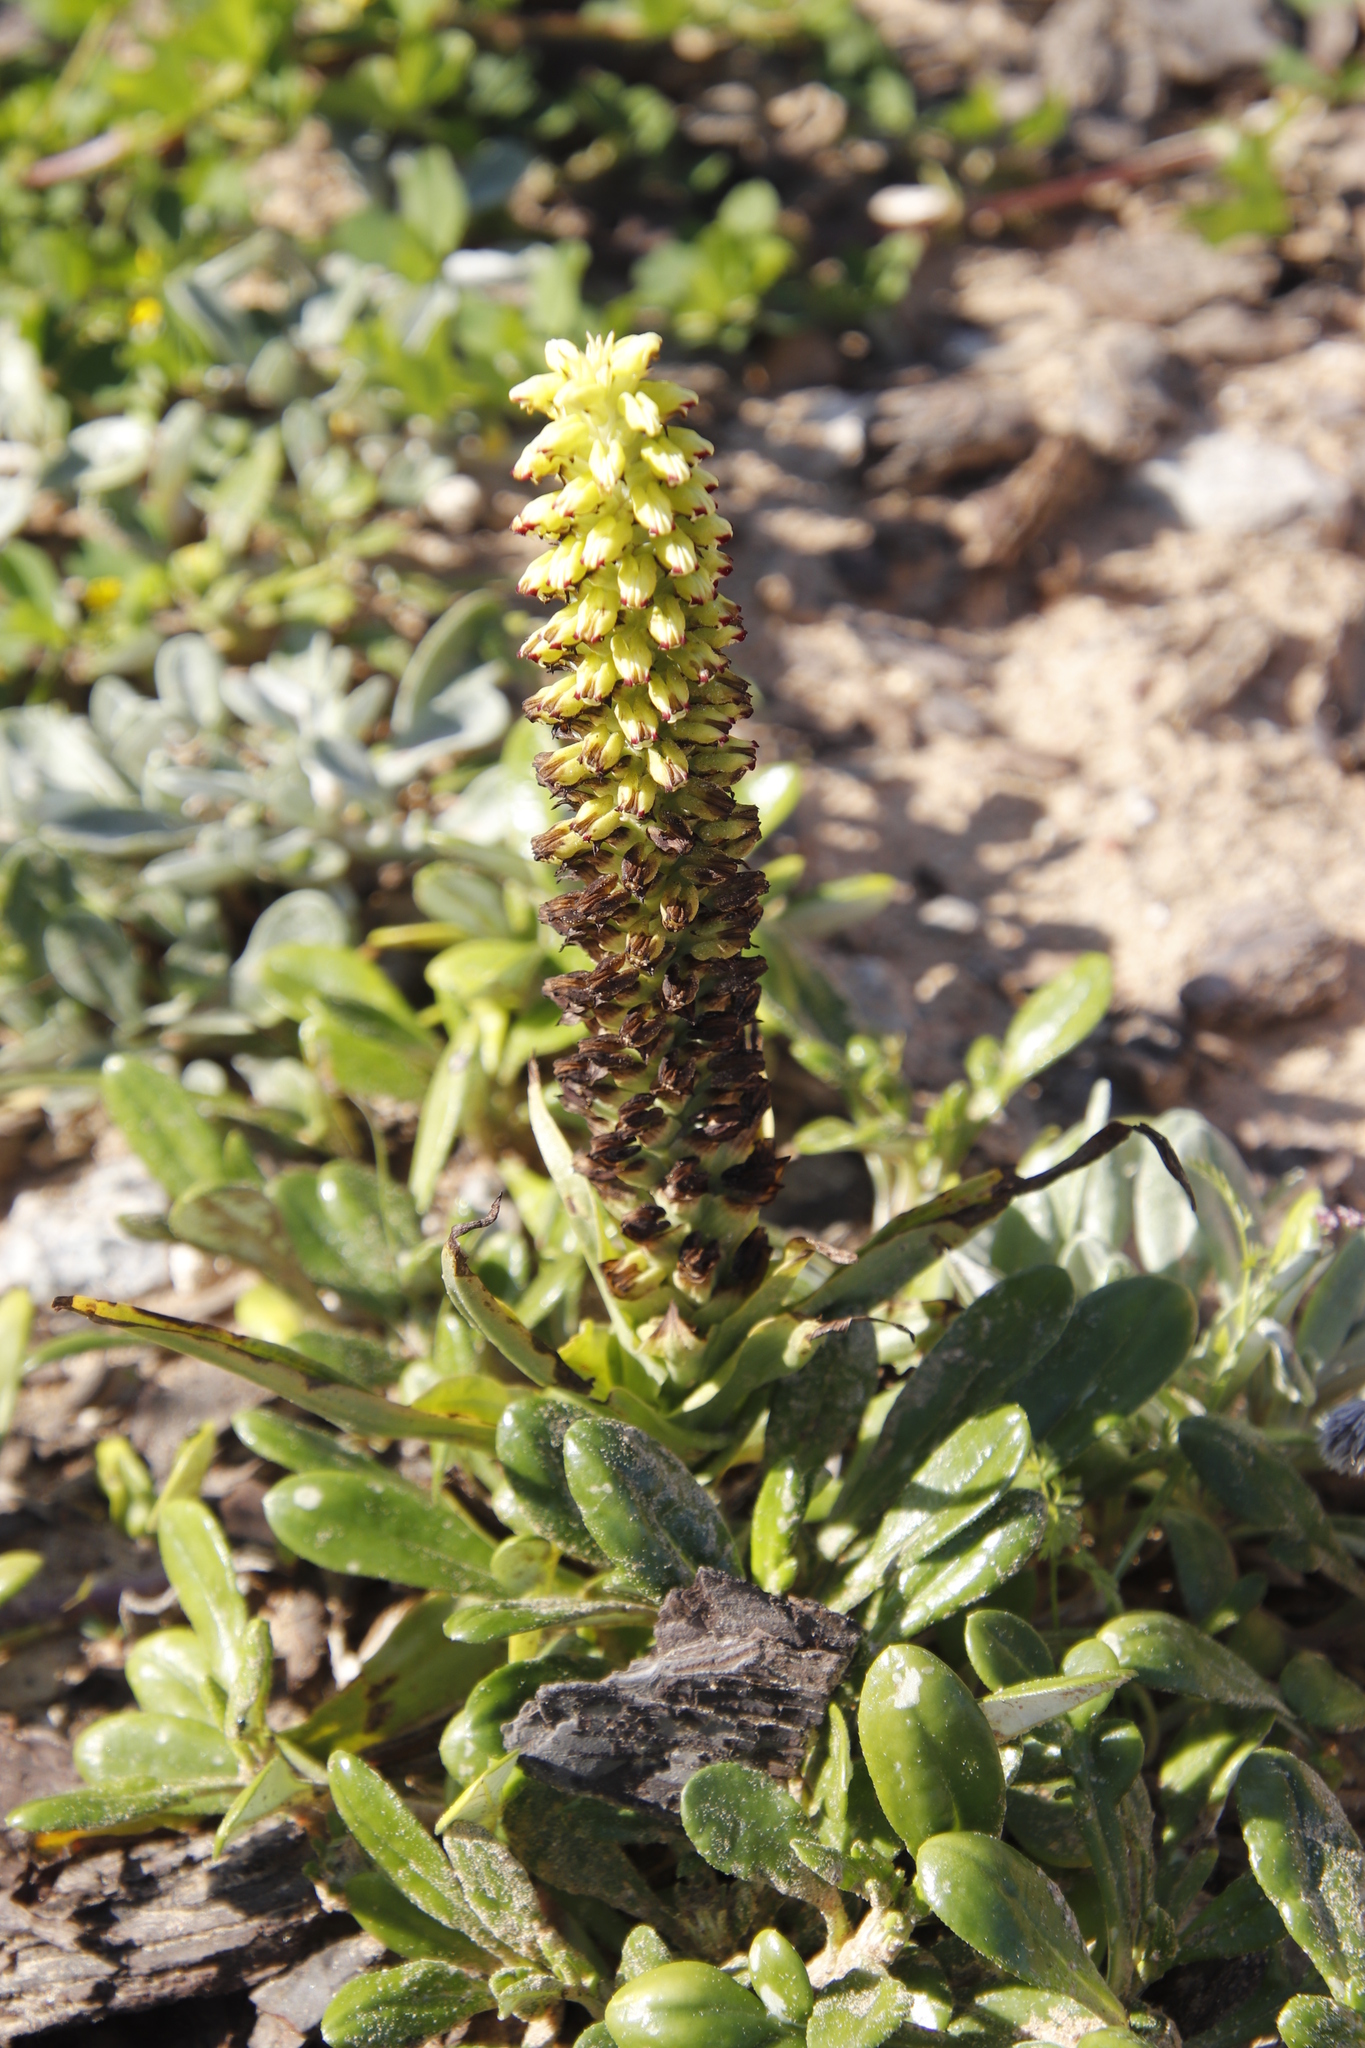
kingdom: Plantae
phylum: Tracheophyta
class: Liliopsida
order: Asparagales
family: Orchidaceae
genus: Corycium
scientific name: Corycium orobanchoides
